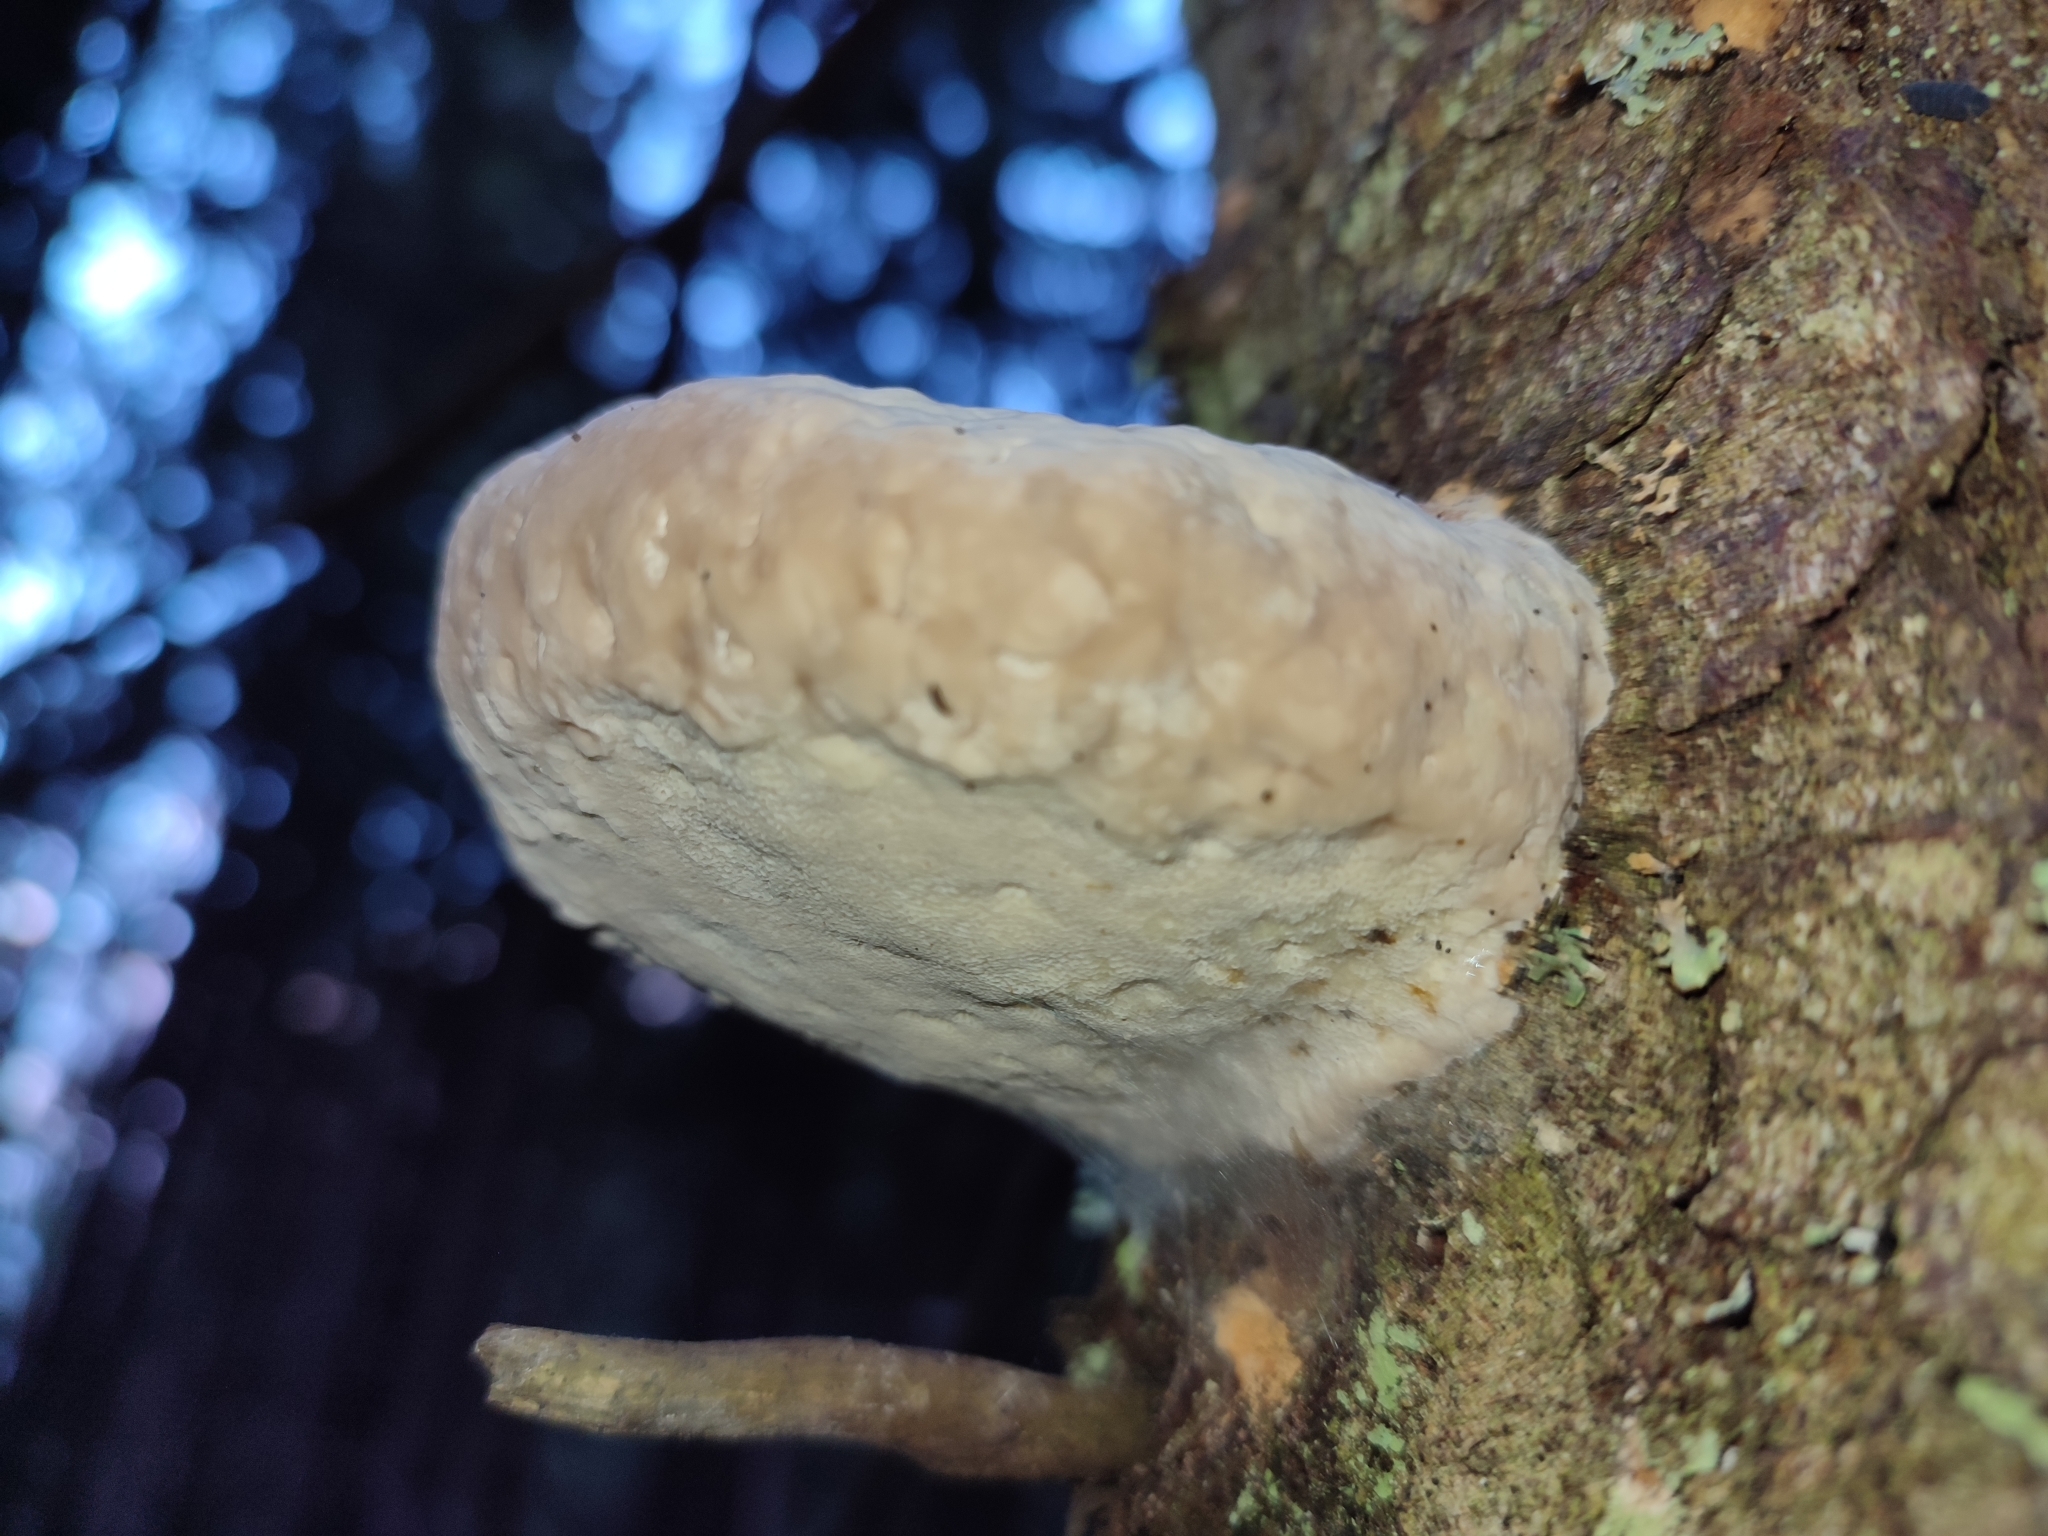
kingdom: Fungi
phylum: Basidiomycota
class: Agaricomycetes
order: Polyporales
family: Fomitopsidaceae
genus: Fomitopsis
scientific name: Fomitopsis pinicola
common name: Red-belted bracket
